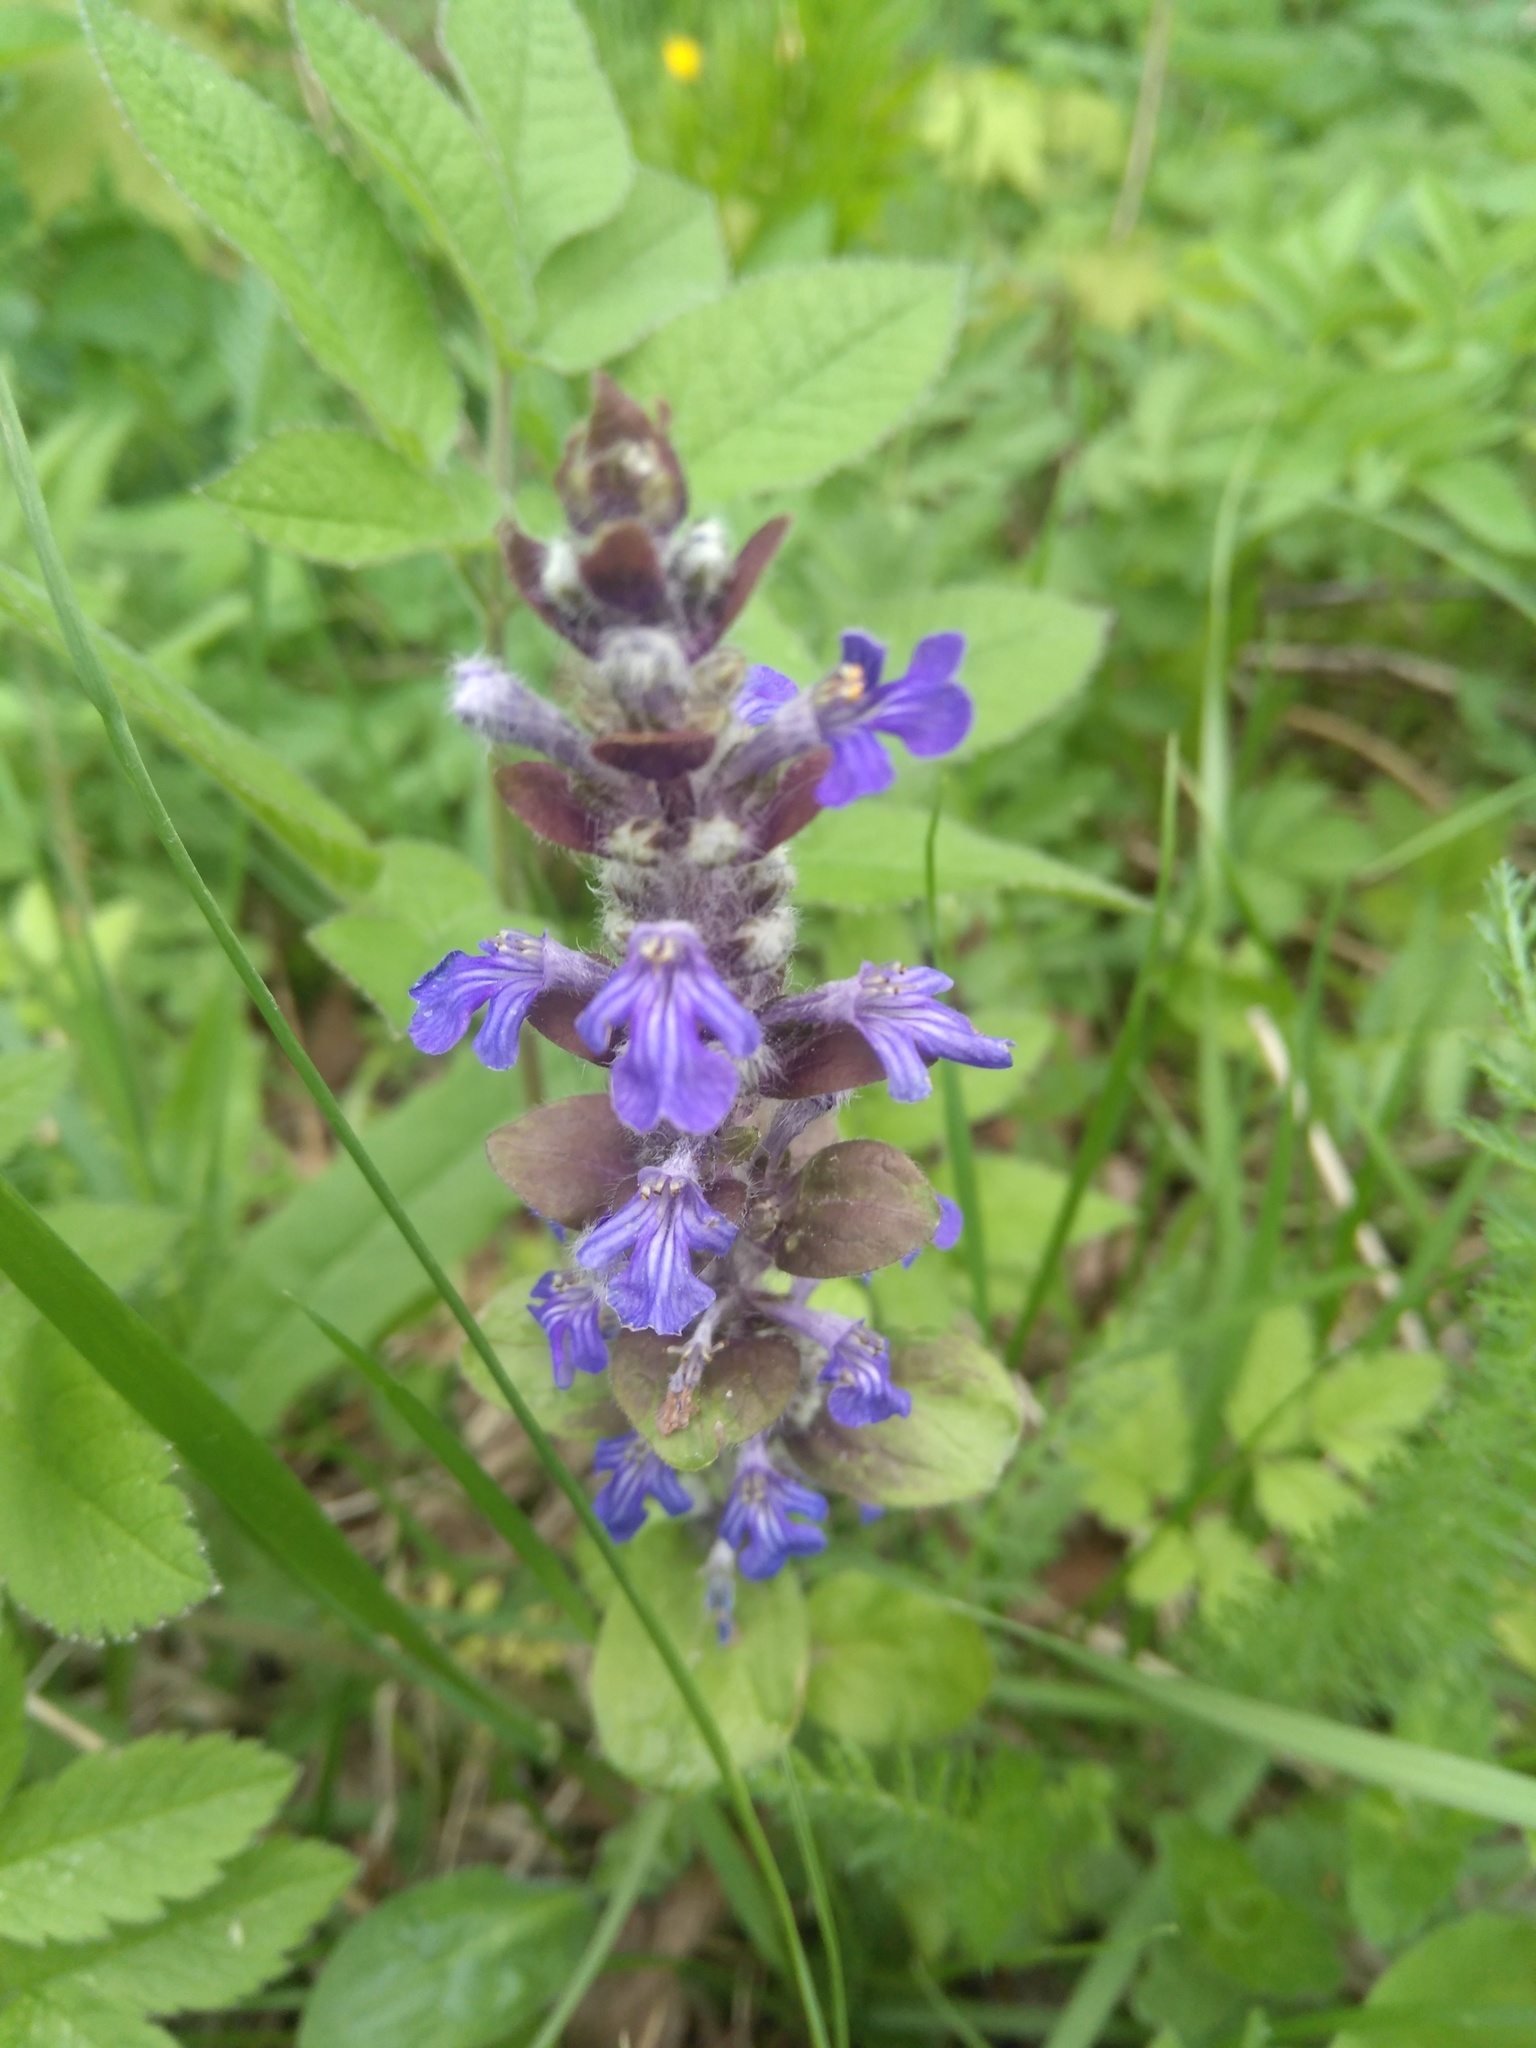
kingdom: Plantae
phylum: Tracheophyta
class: Magnoliopsida
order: Lamiales
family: Lamiaceae
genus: Ajuga
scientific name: Ajuga reptans
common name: Bugle
